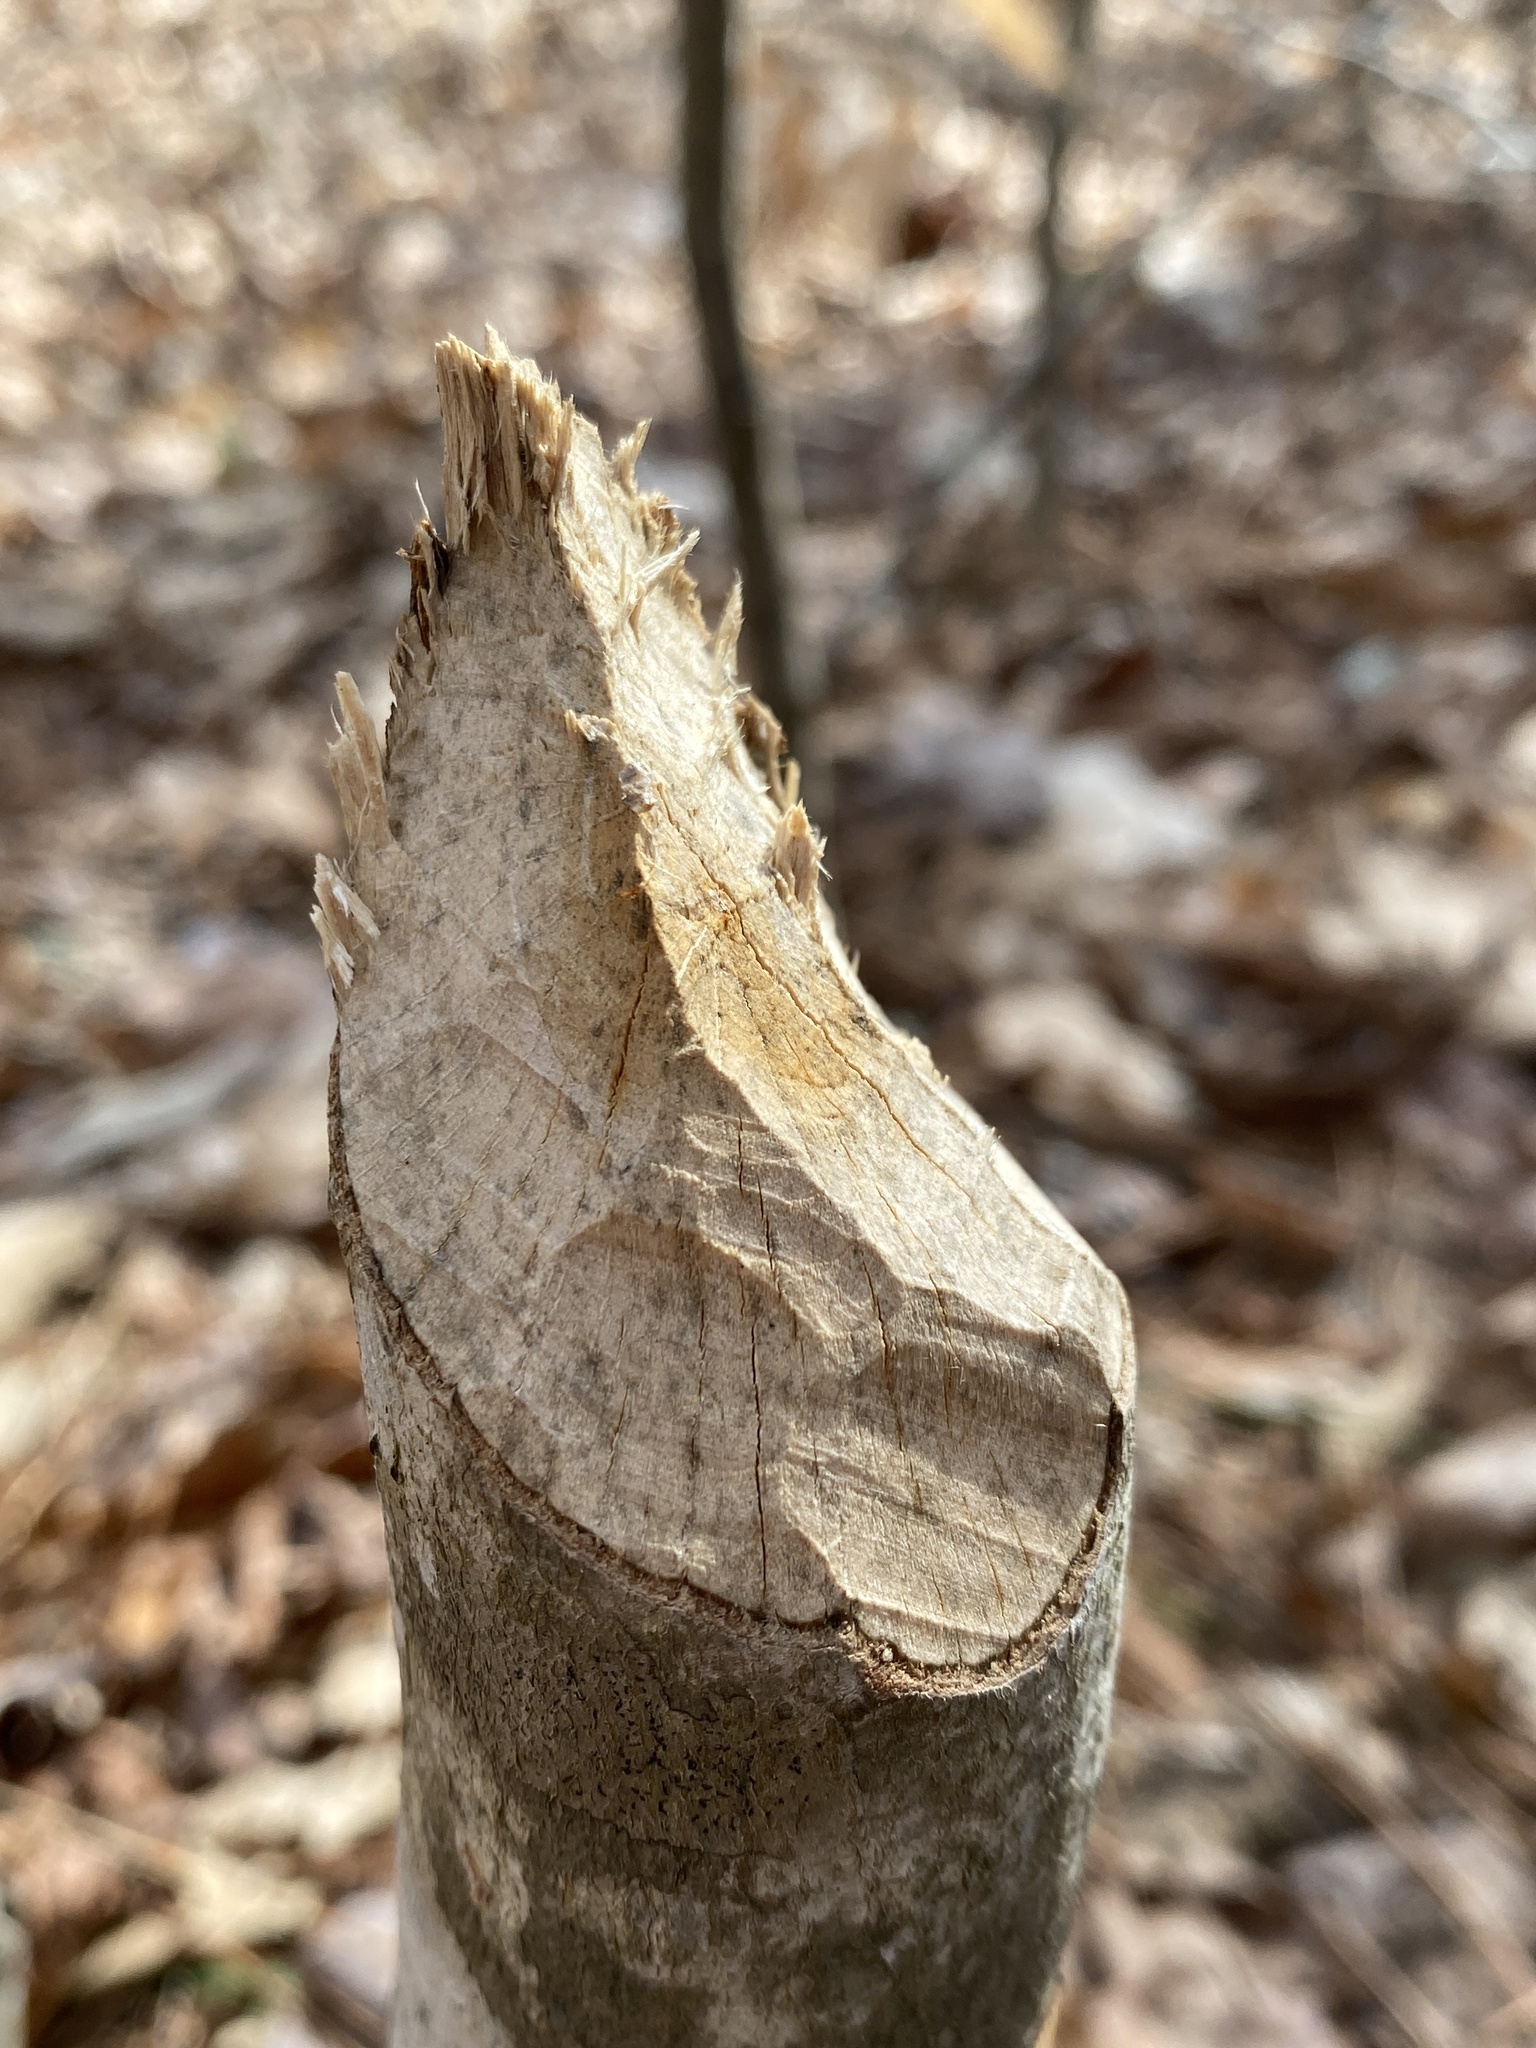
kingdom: Animalia
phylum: Chordata
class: Mammalia
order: Rodentia
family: Castoridae
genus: Castor
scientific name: Castor canadensis
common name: American beaver
